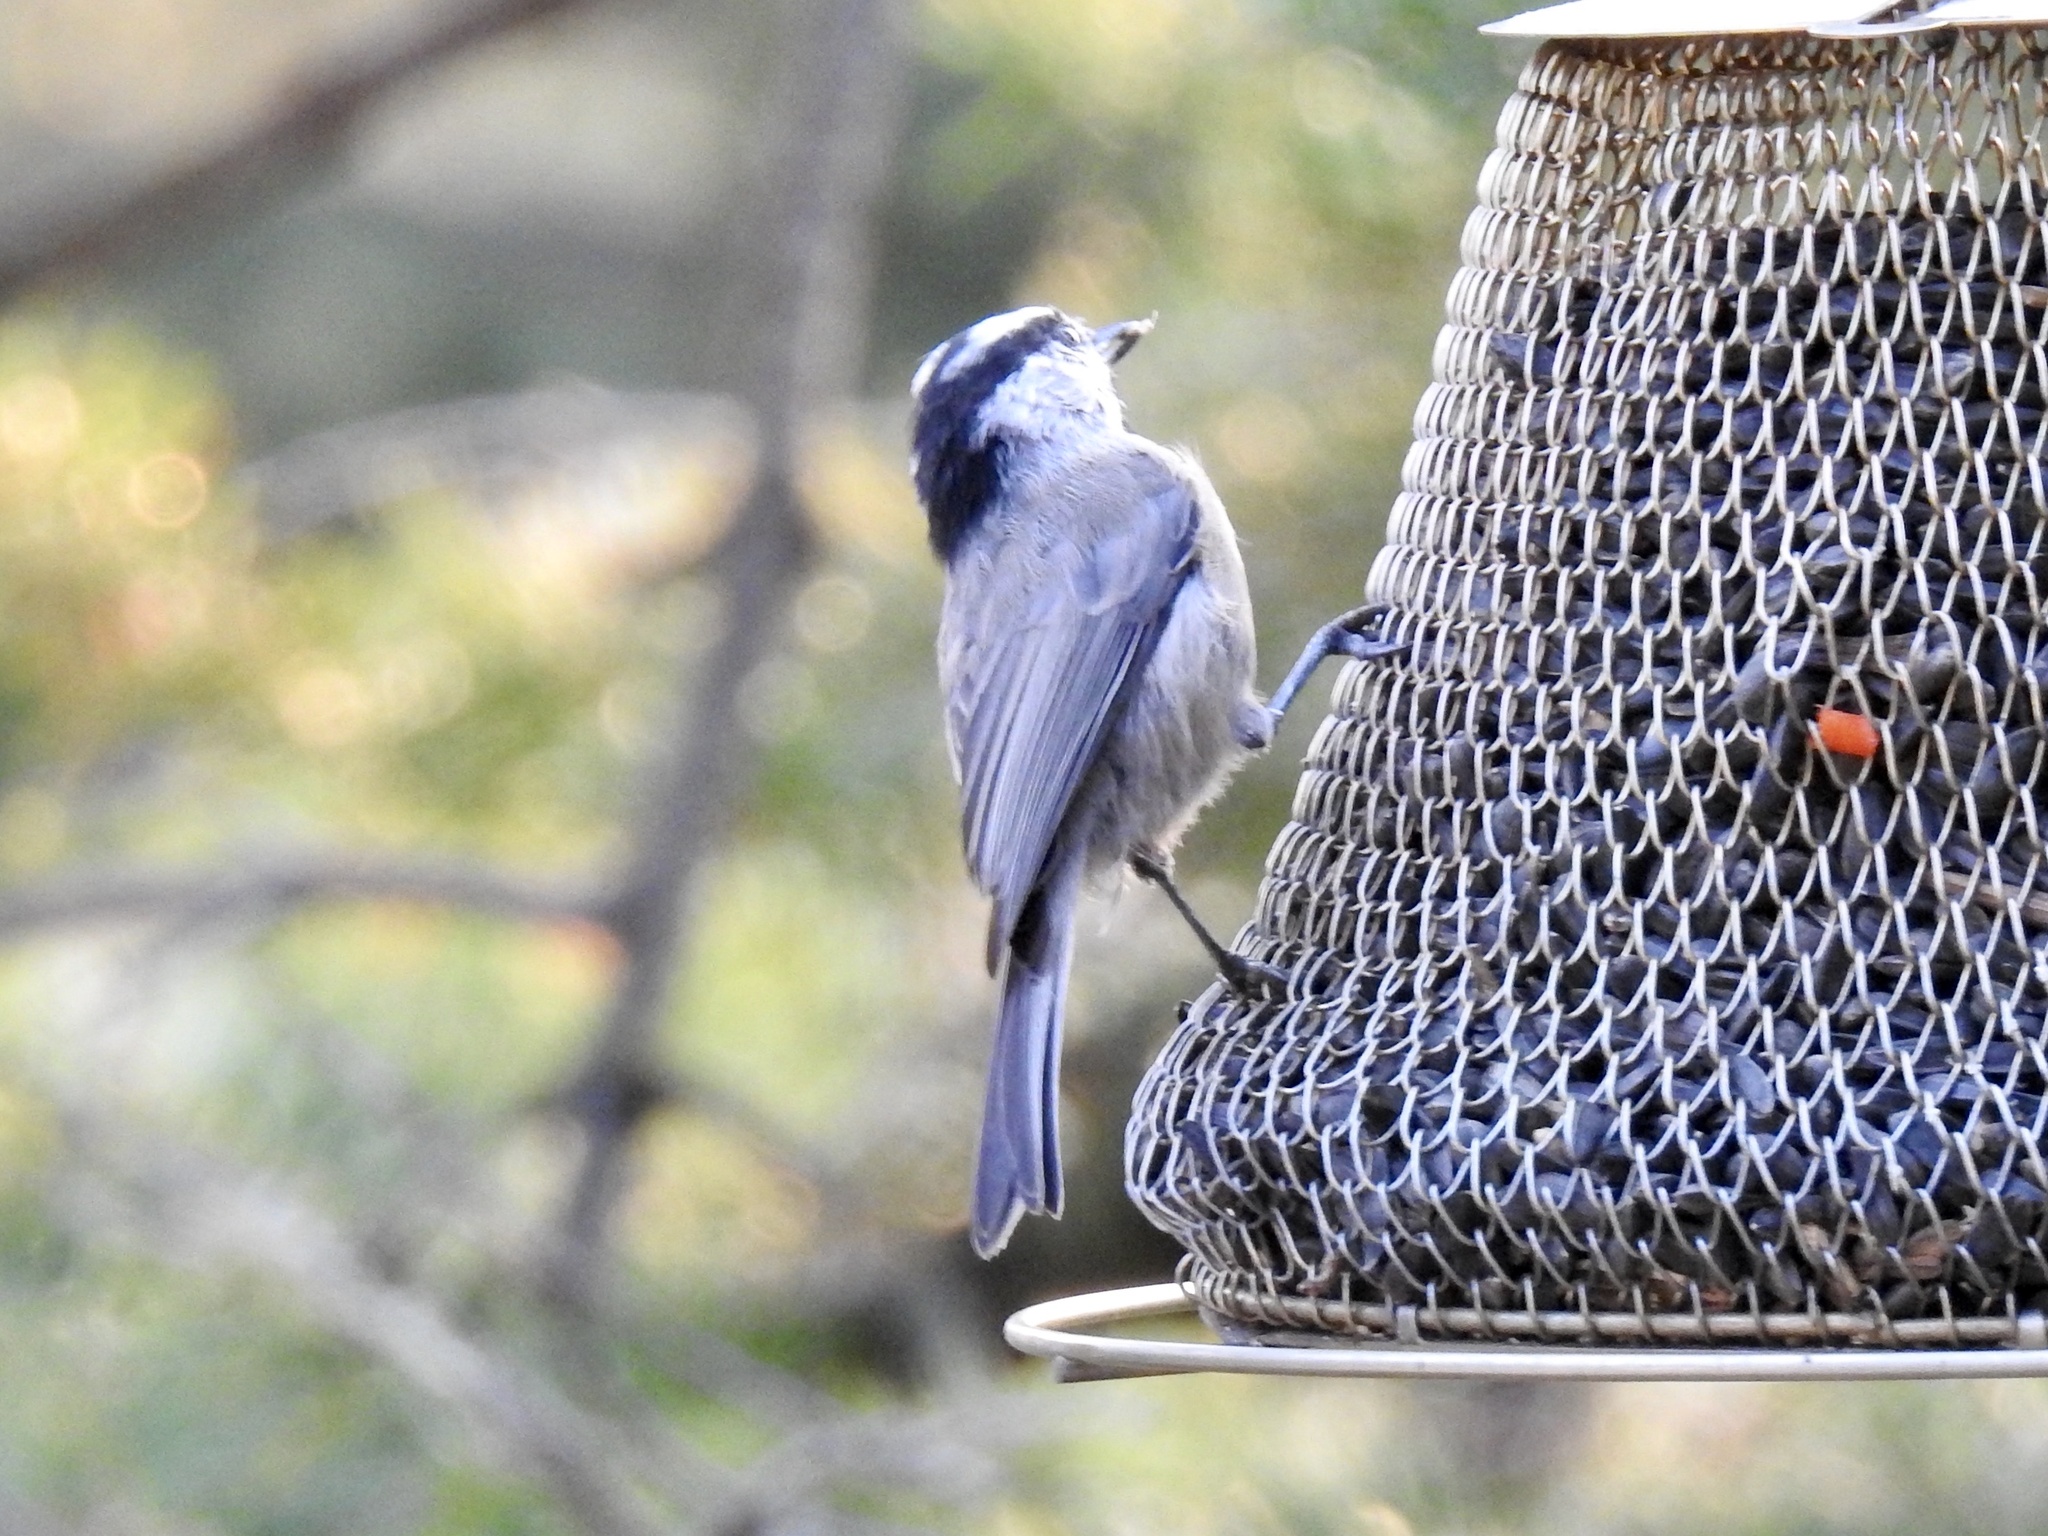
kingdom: Animalia
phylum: Chordata
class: Aves
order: Passeriformes
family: Paridae
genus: Poecile
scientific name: Poecile gambeli
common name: Mountain chickadee
